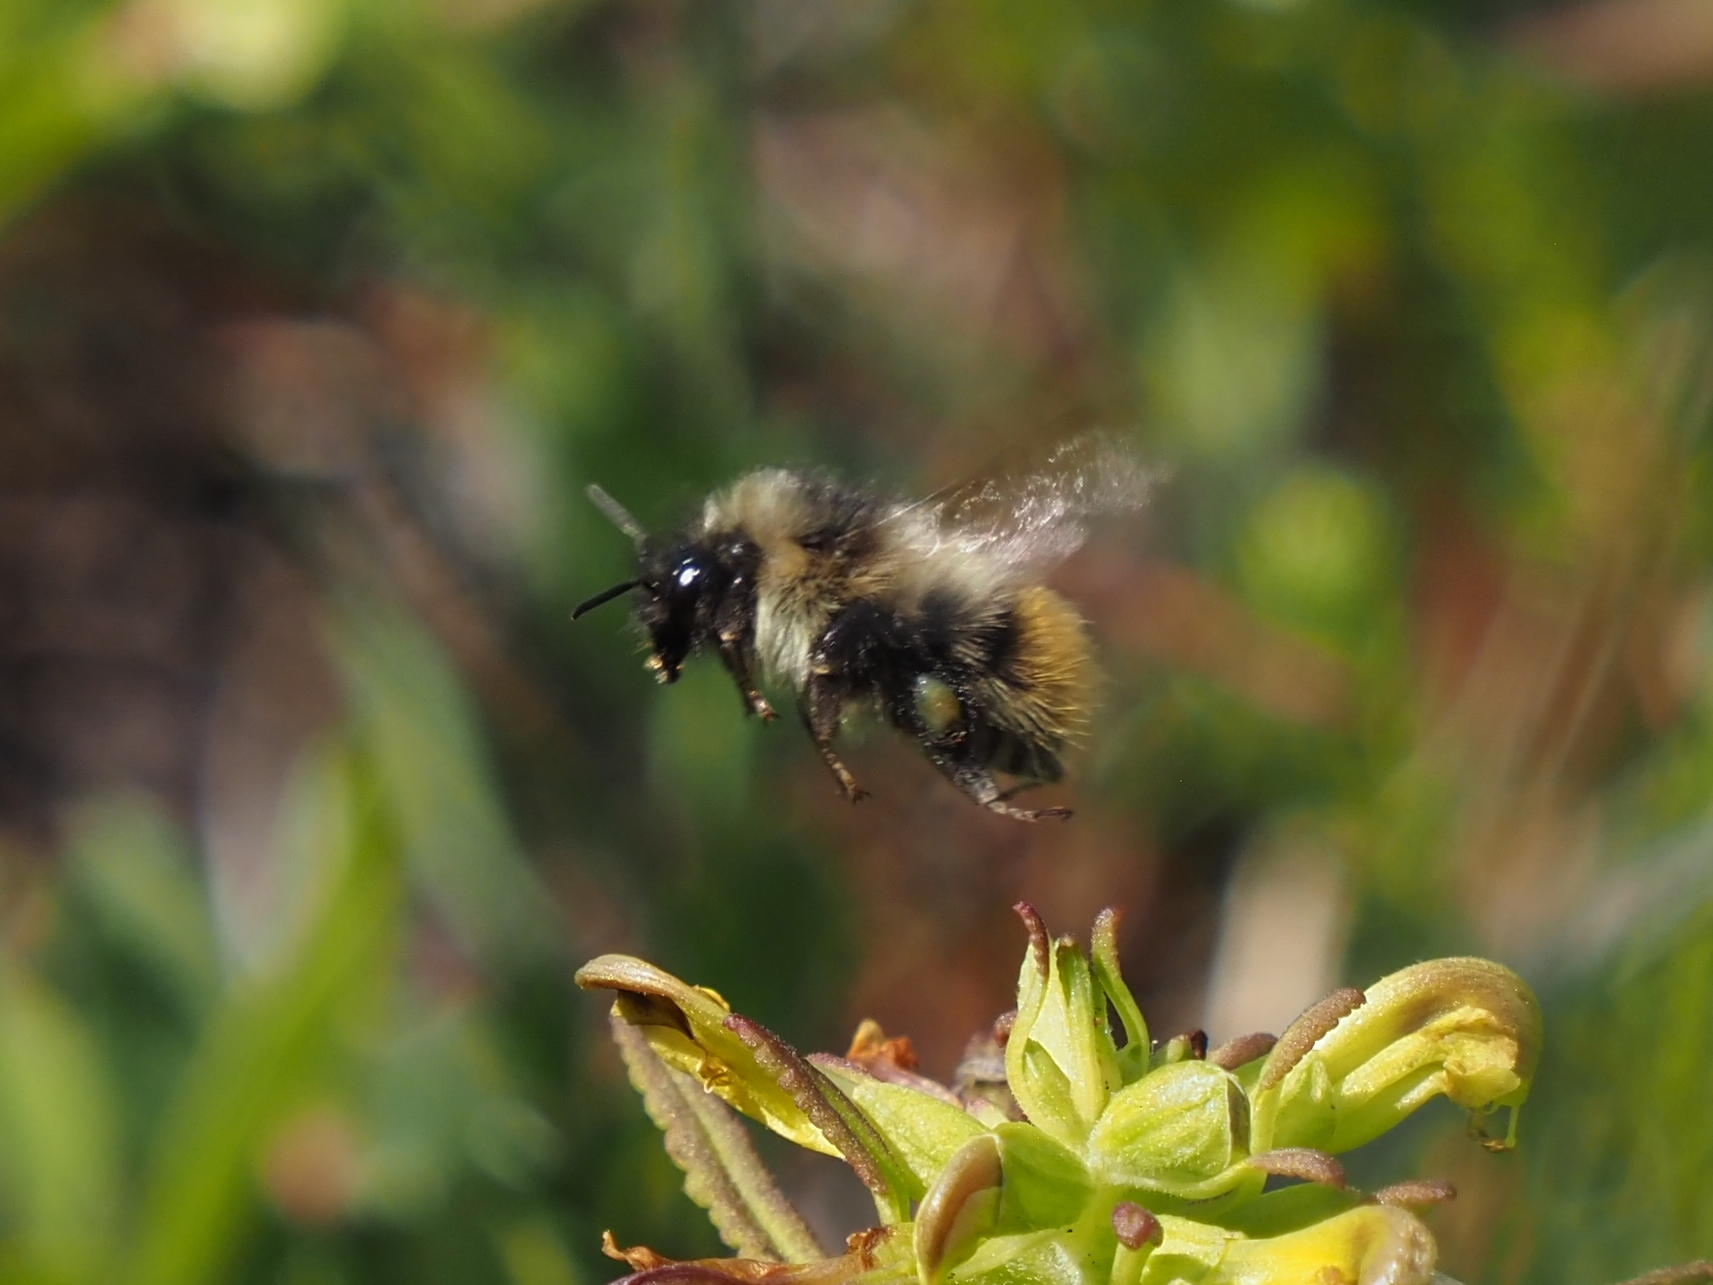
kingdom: Animalia
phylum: Arthropoda
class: Insecta
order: Hymenoptera
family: Apidae
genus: Bombus
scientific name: Bombus mixtus
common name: Fuzzy-horned bumble bee
